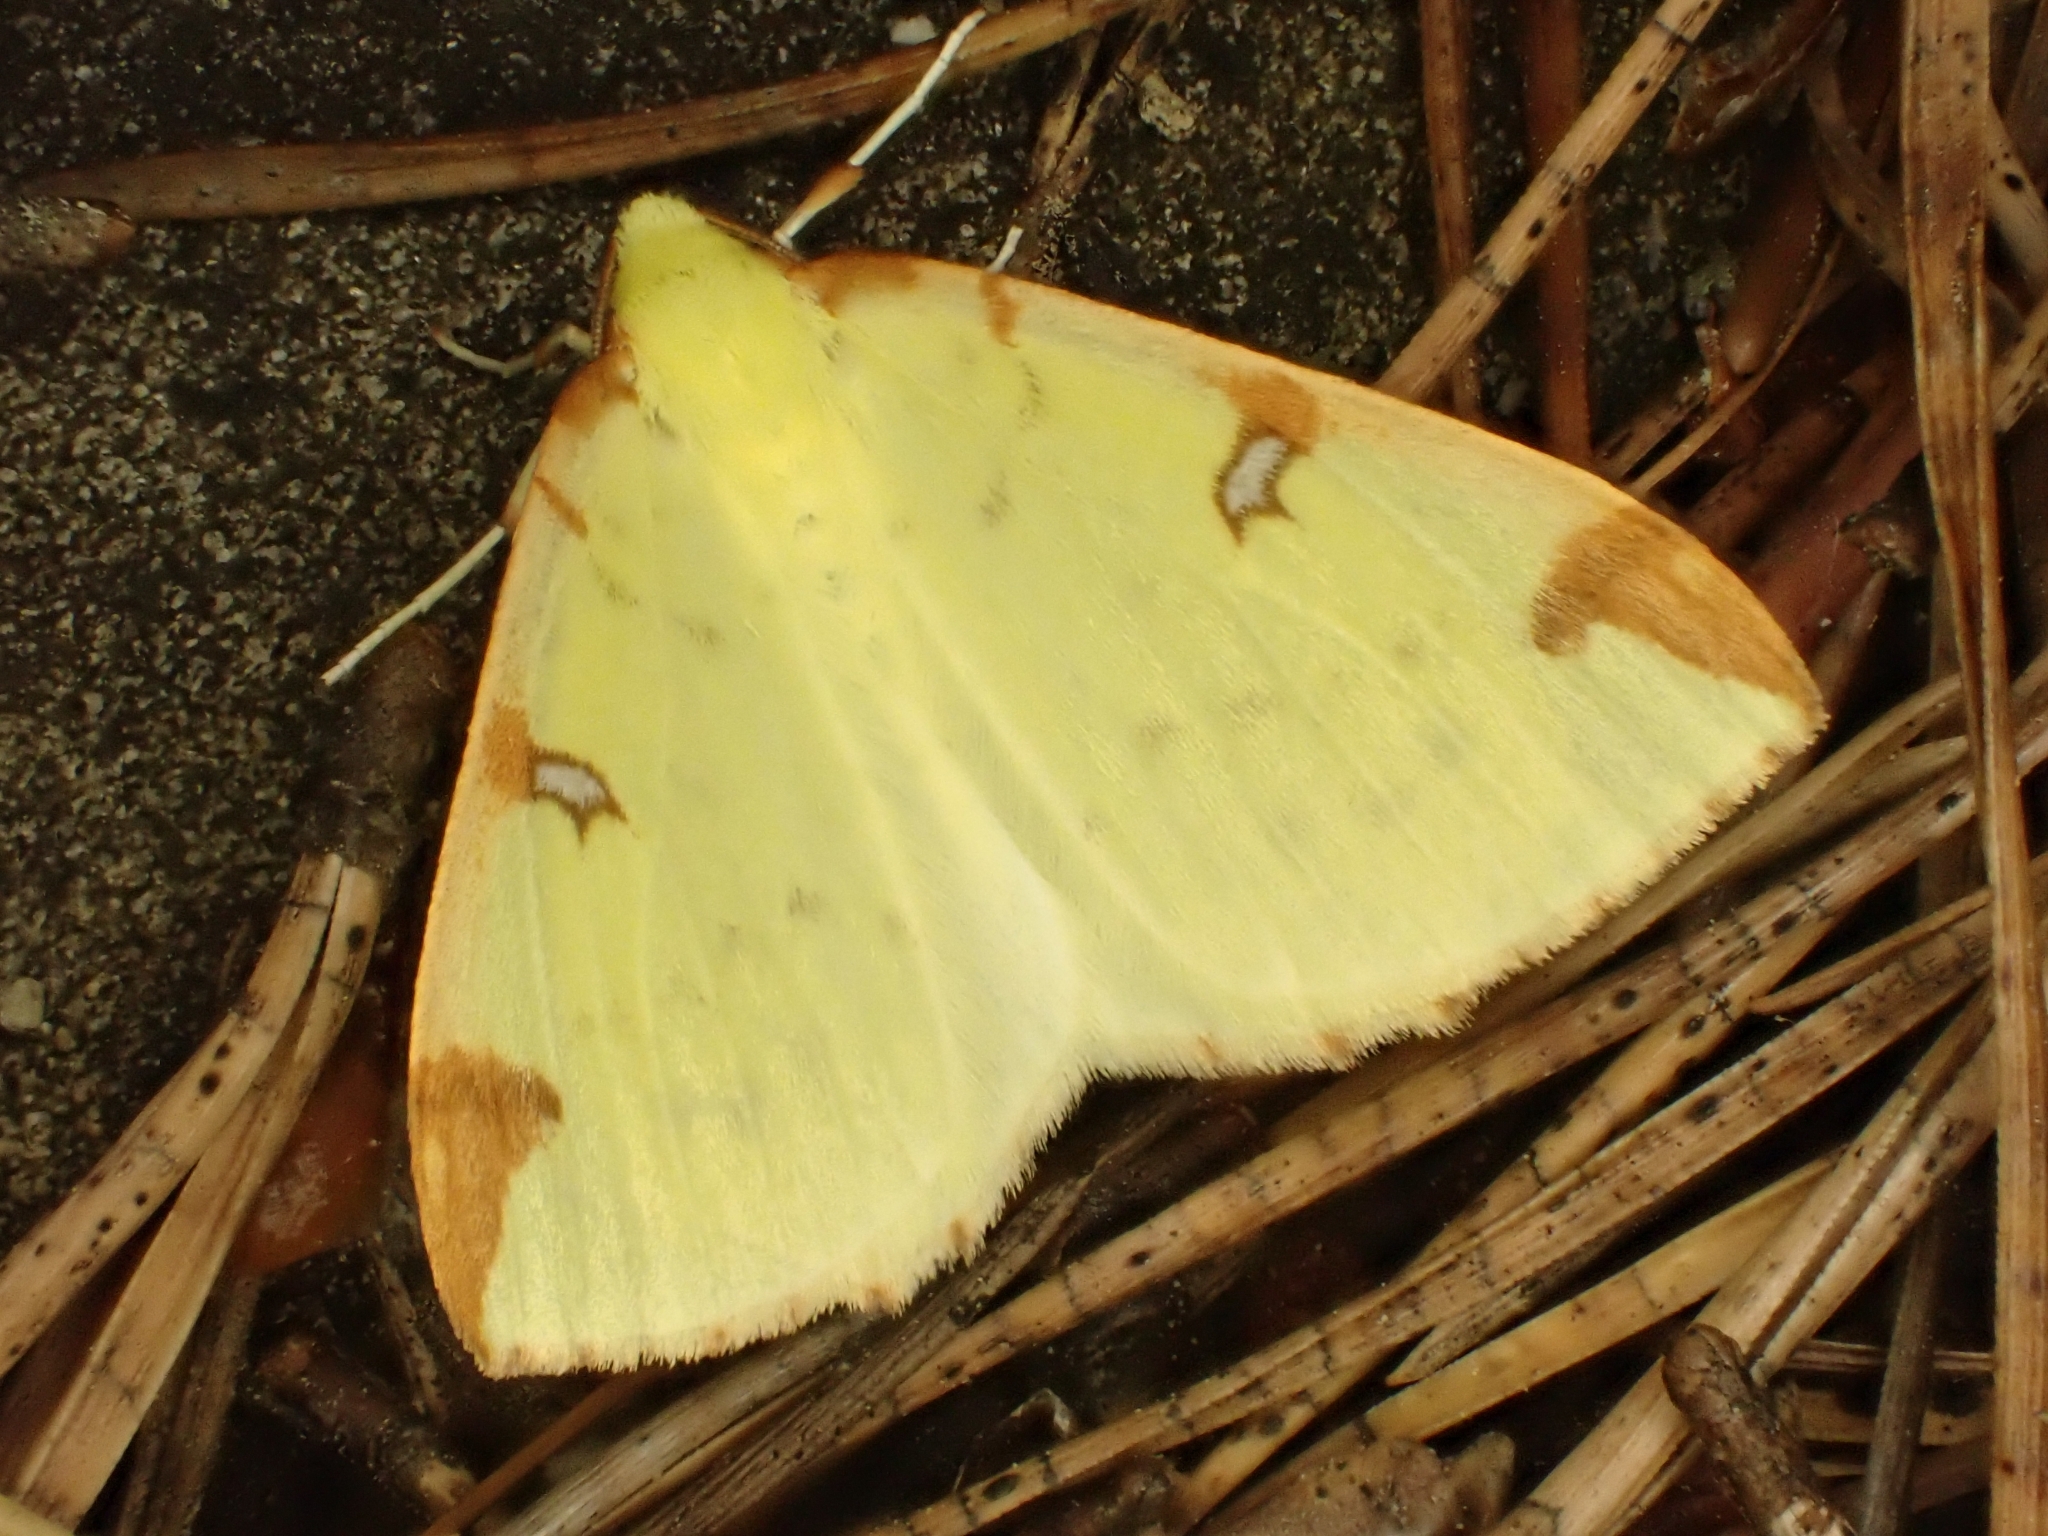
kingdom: Animalia
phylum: Arthropoda
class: Insecta
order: Lepidoptera
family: Geometridae
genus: Opisthograptis
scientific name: Opisthograptis luteolata
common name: Brimstone moth
